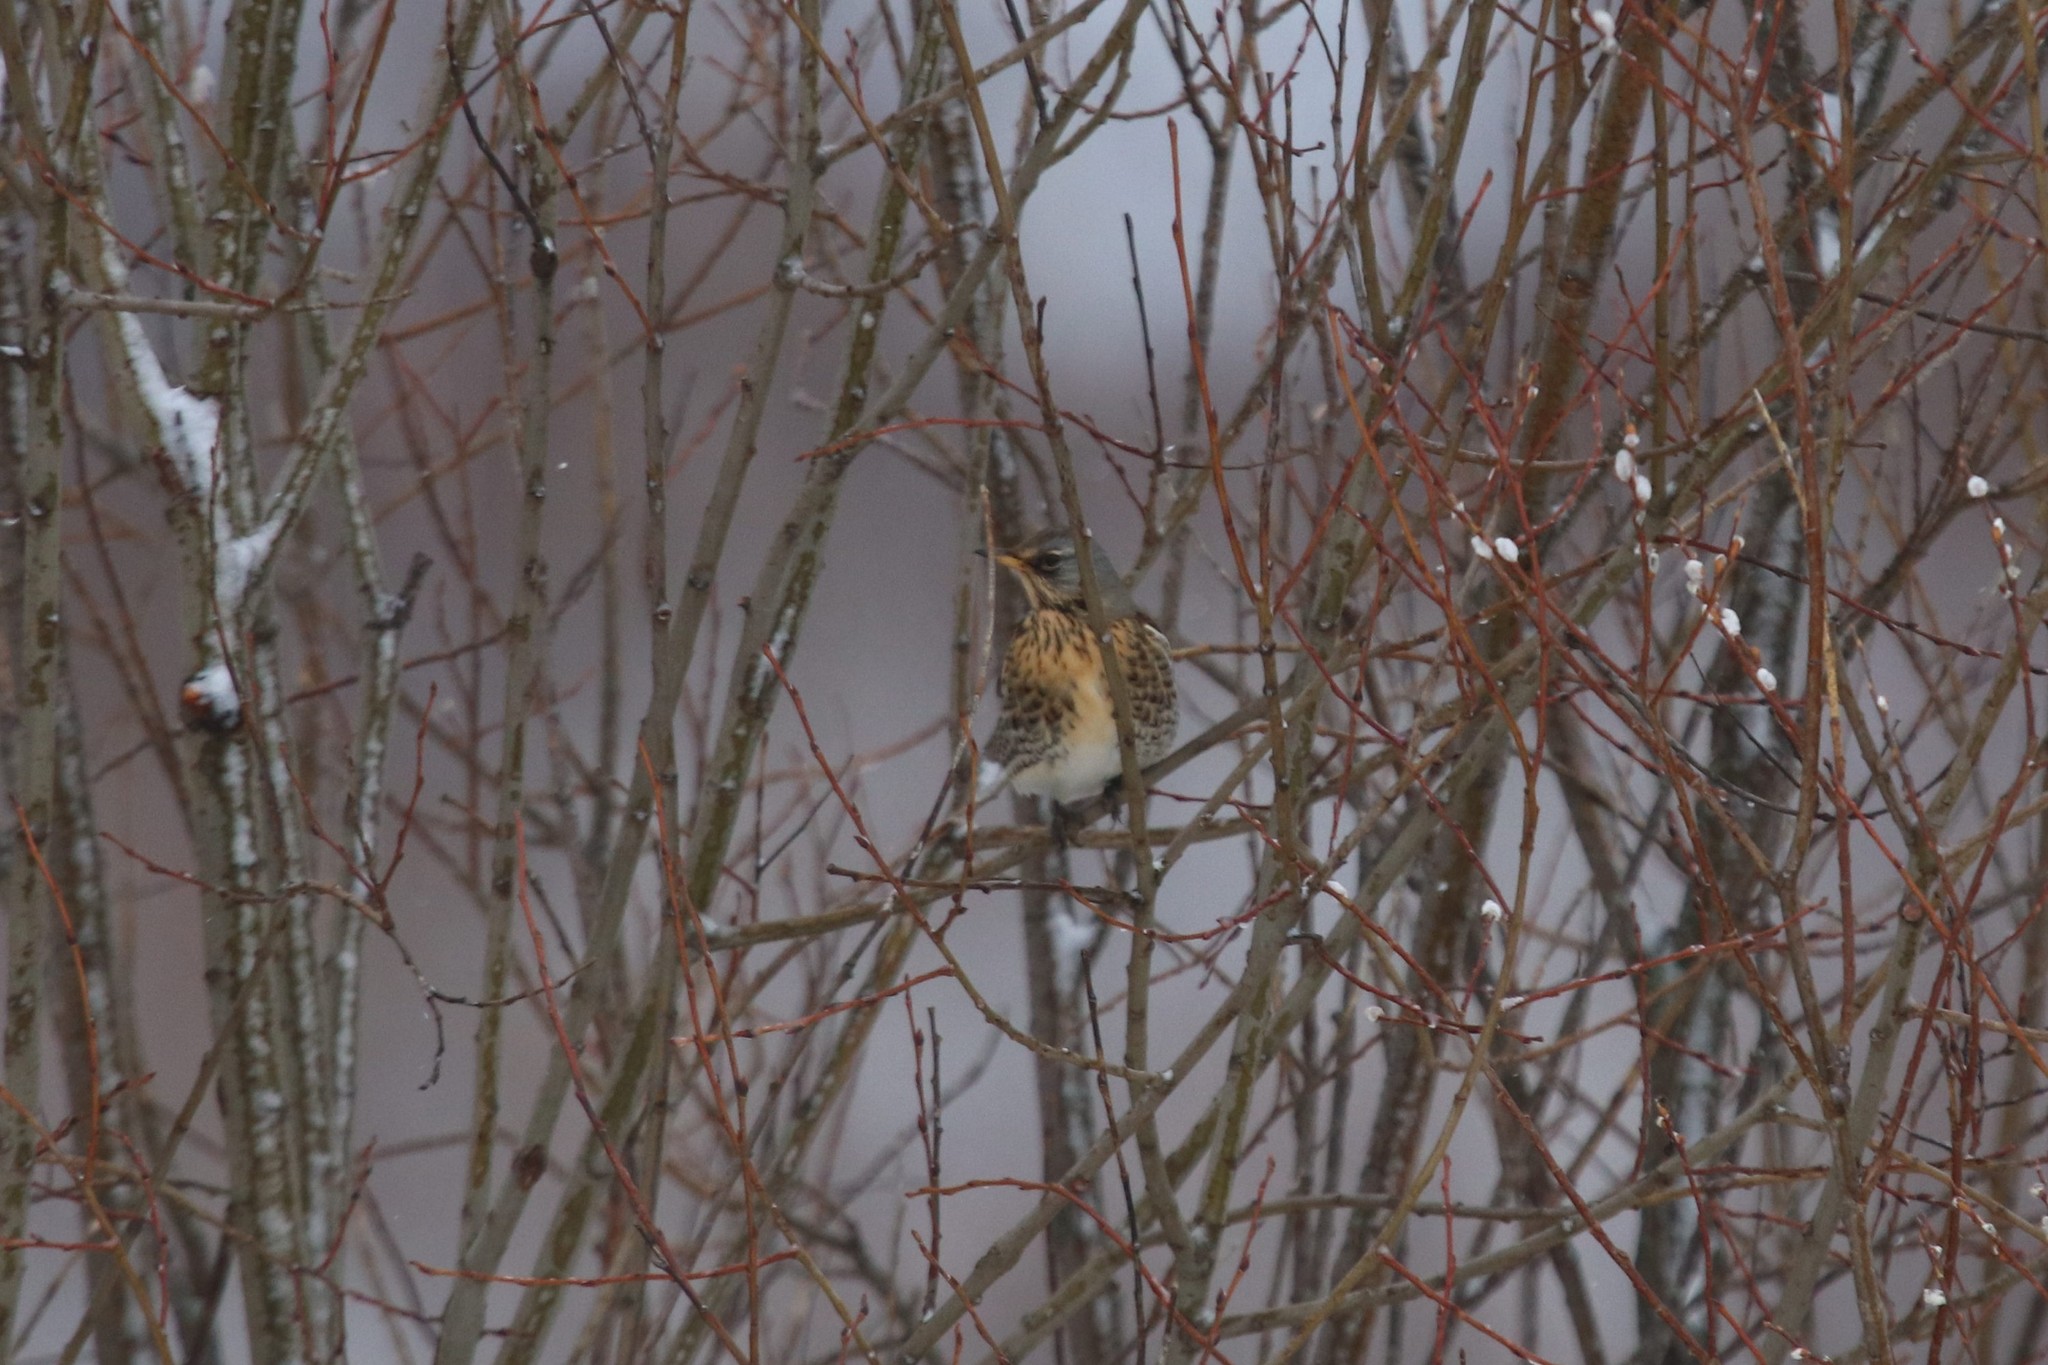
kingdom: Animalia
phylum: Chordata
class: Aves
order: Passeriformes
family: Turdidae
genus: Turdus
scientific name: Turdus pilaris
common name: Fieldfare
